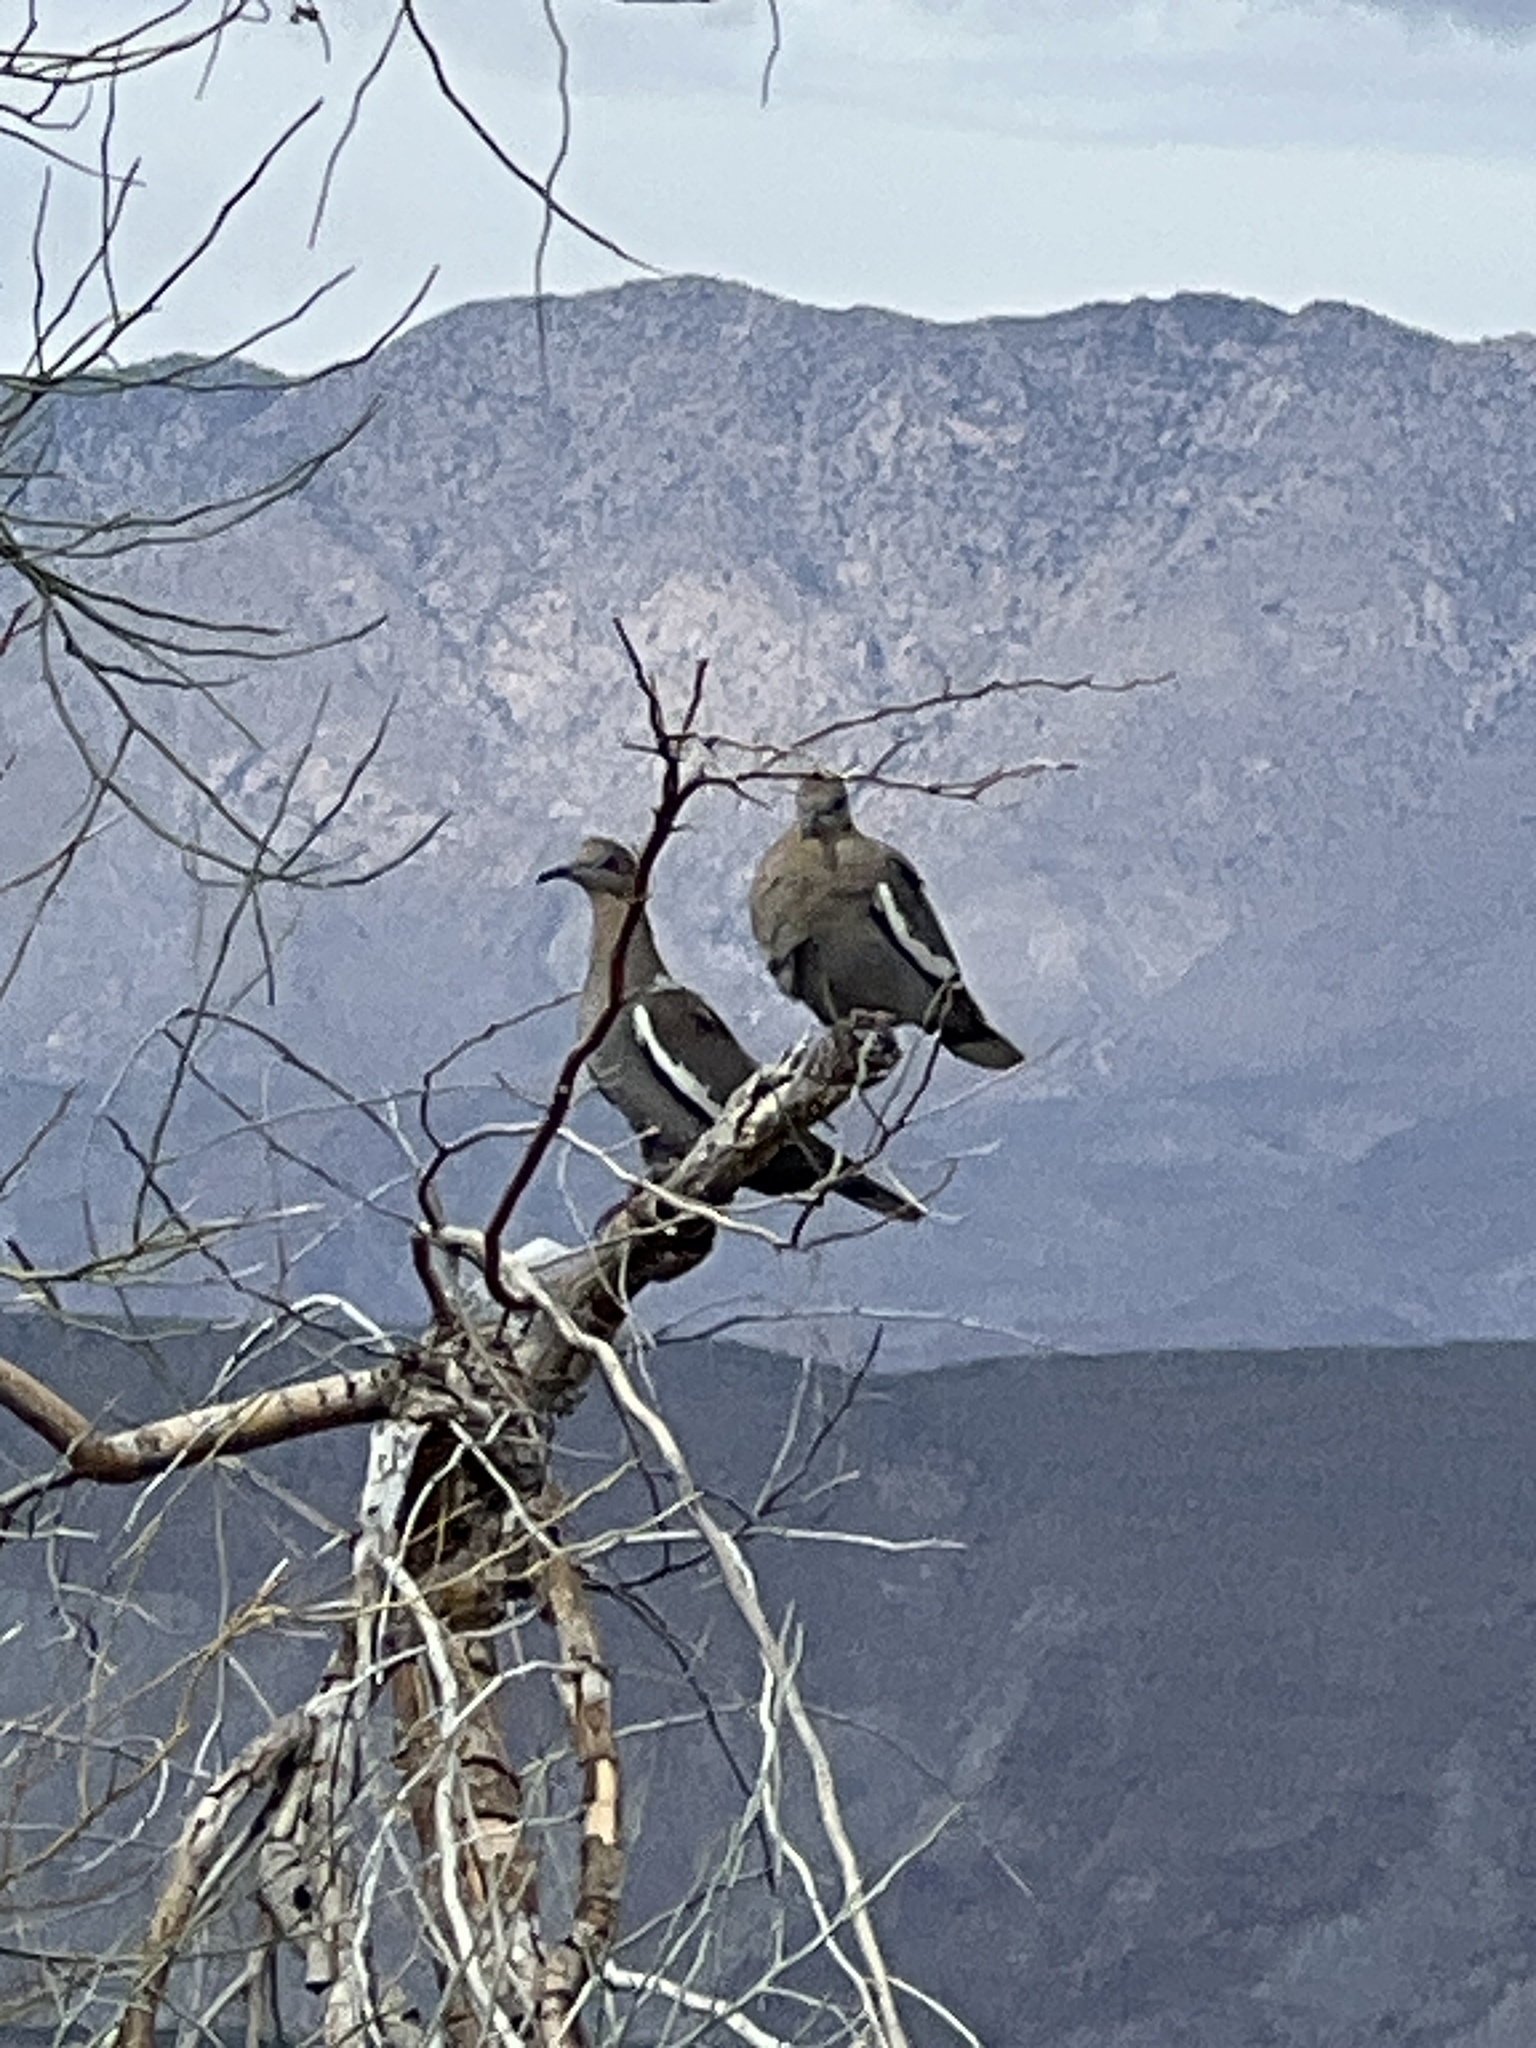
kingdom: Animalia
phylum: Chordata
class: Aves
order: Columbiformes
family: Columbidae
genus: Zenaida
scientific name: Zenaida asiatica
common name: White-winged dove
